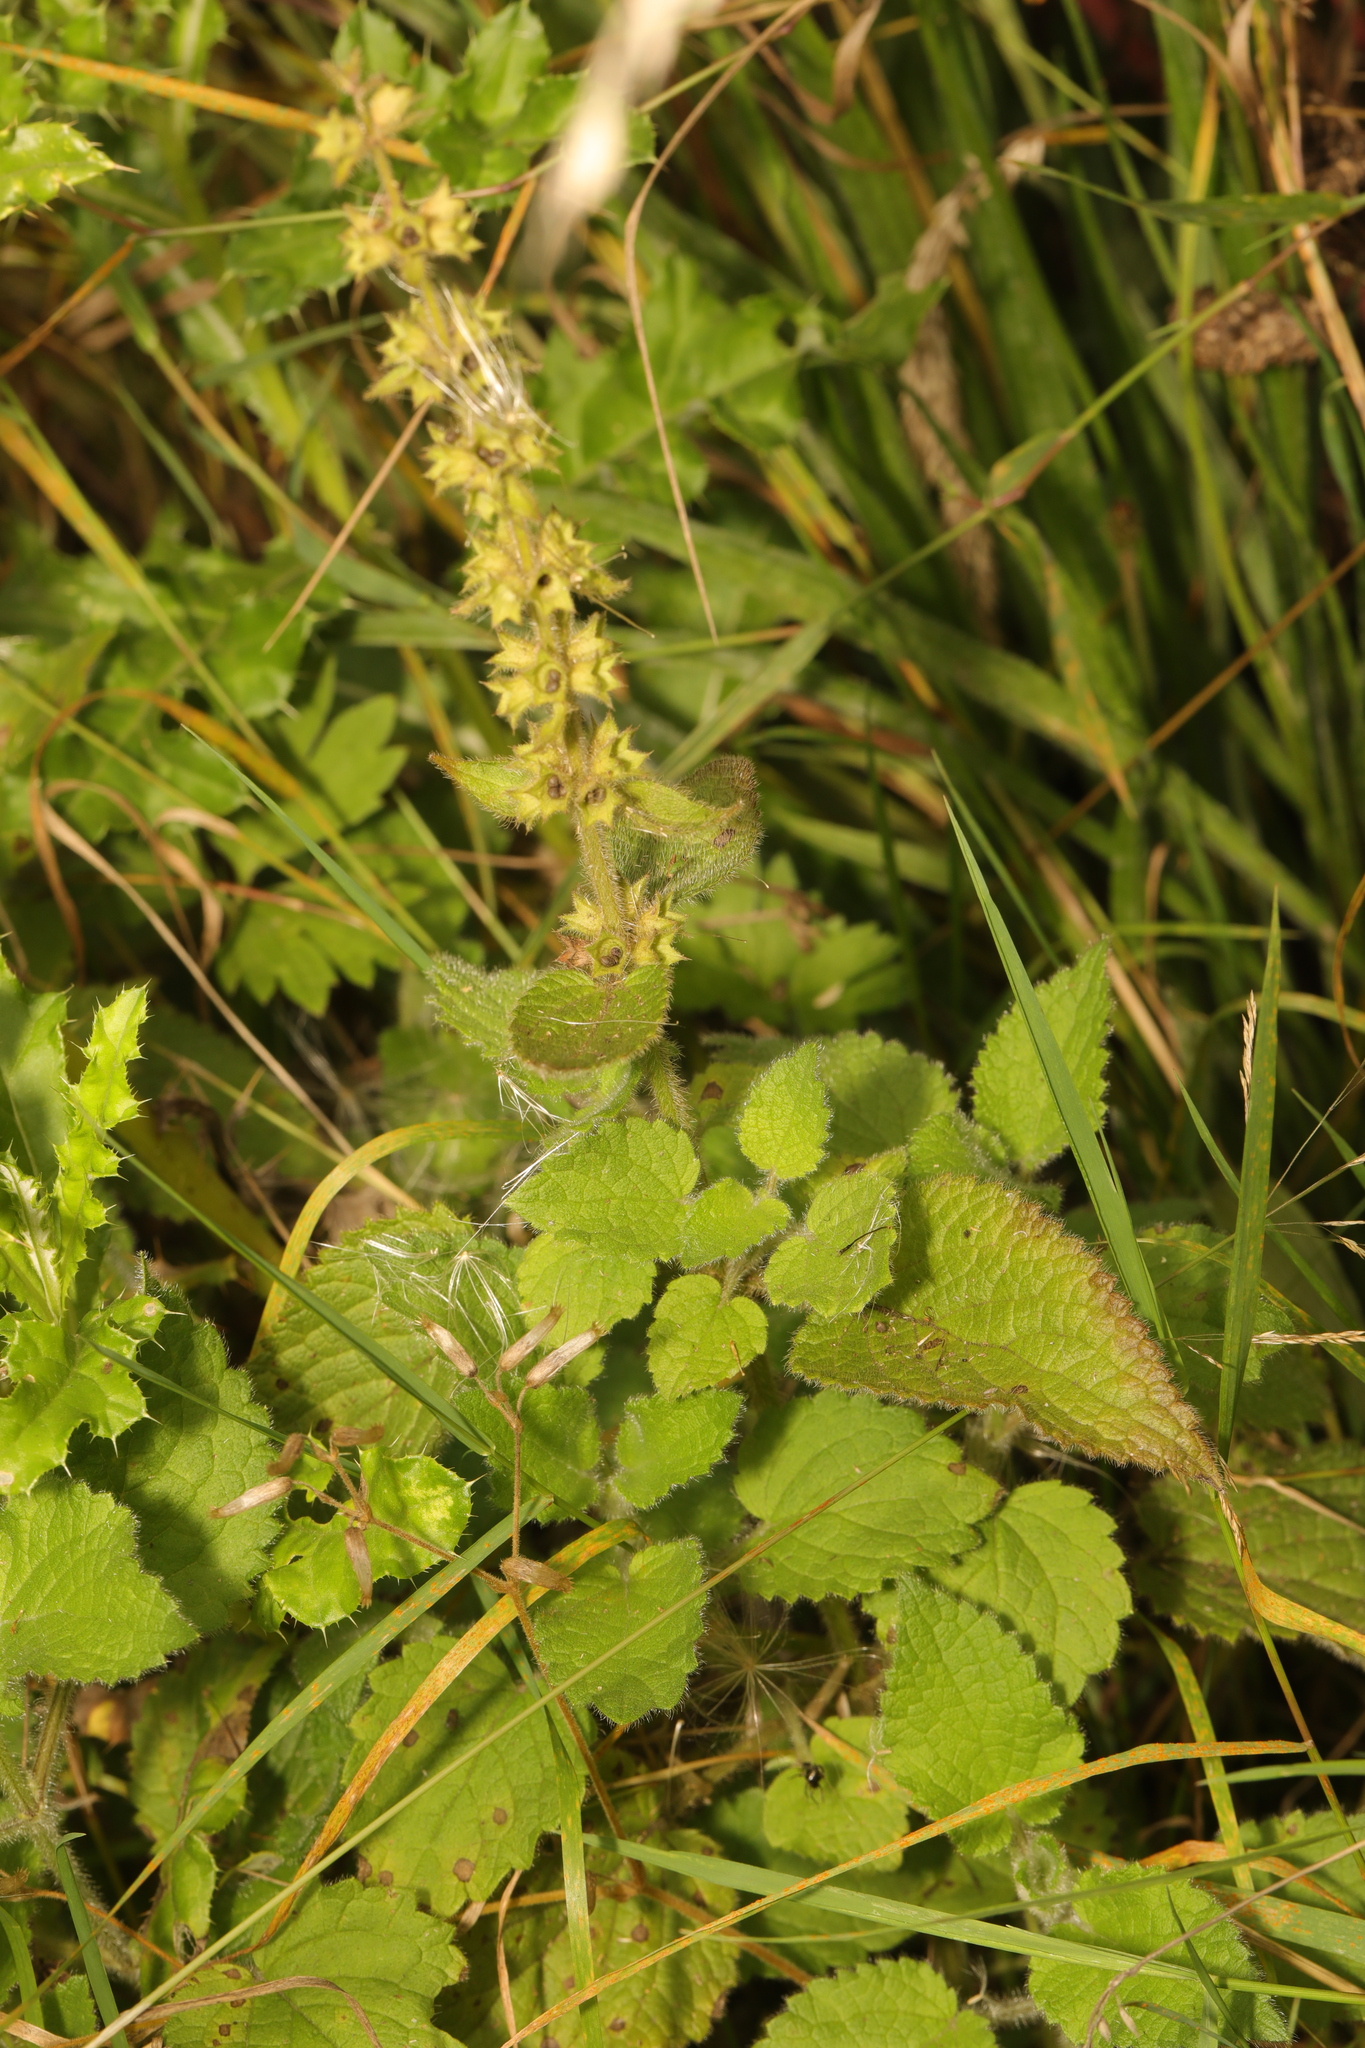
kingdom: Plantae
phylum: Tracheophyta
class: Magnoliopsida
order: Lamiales
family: Lamiaceae
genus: Stachys
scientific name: Stachys sylvatica
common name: Hedge woundwort
